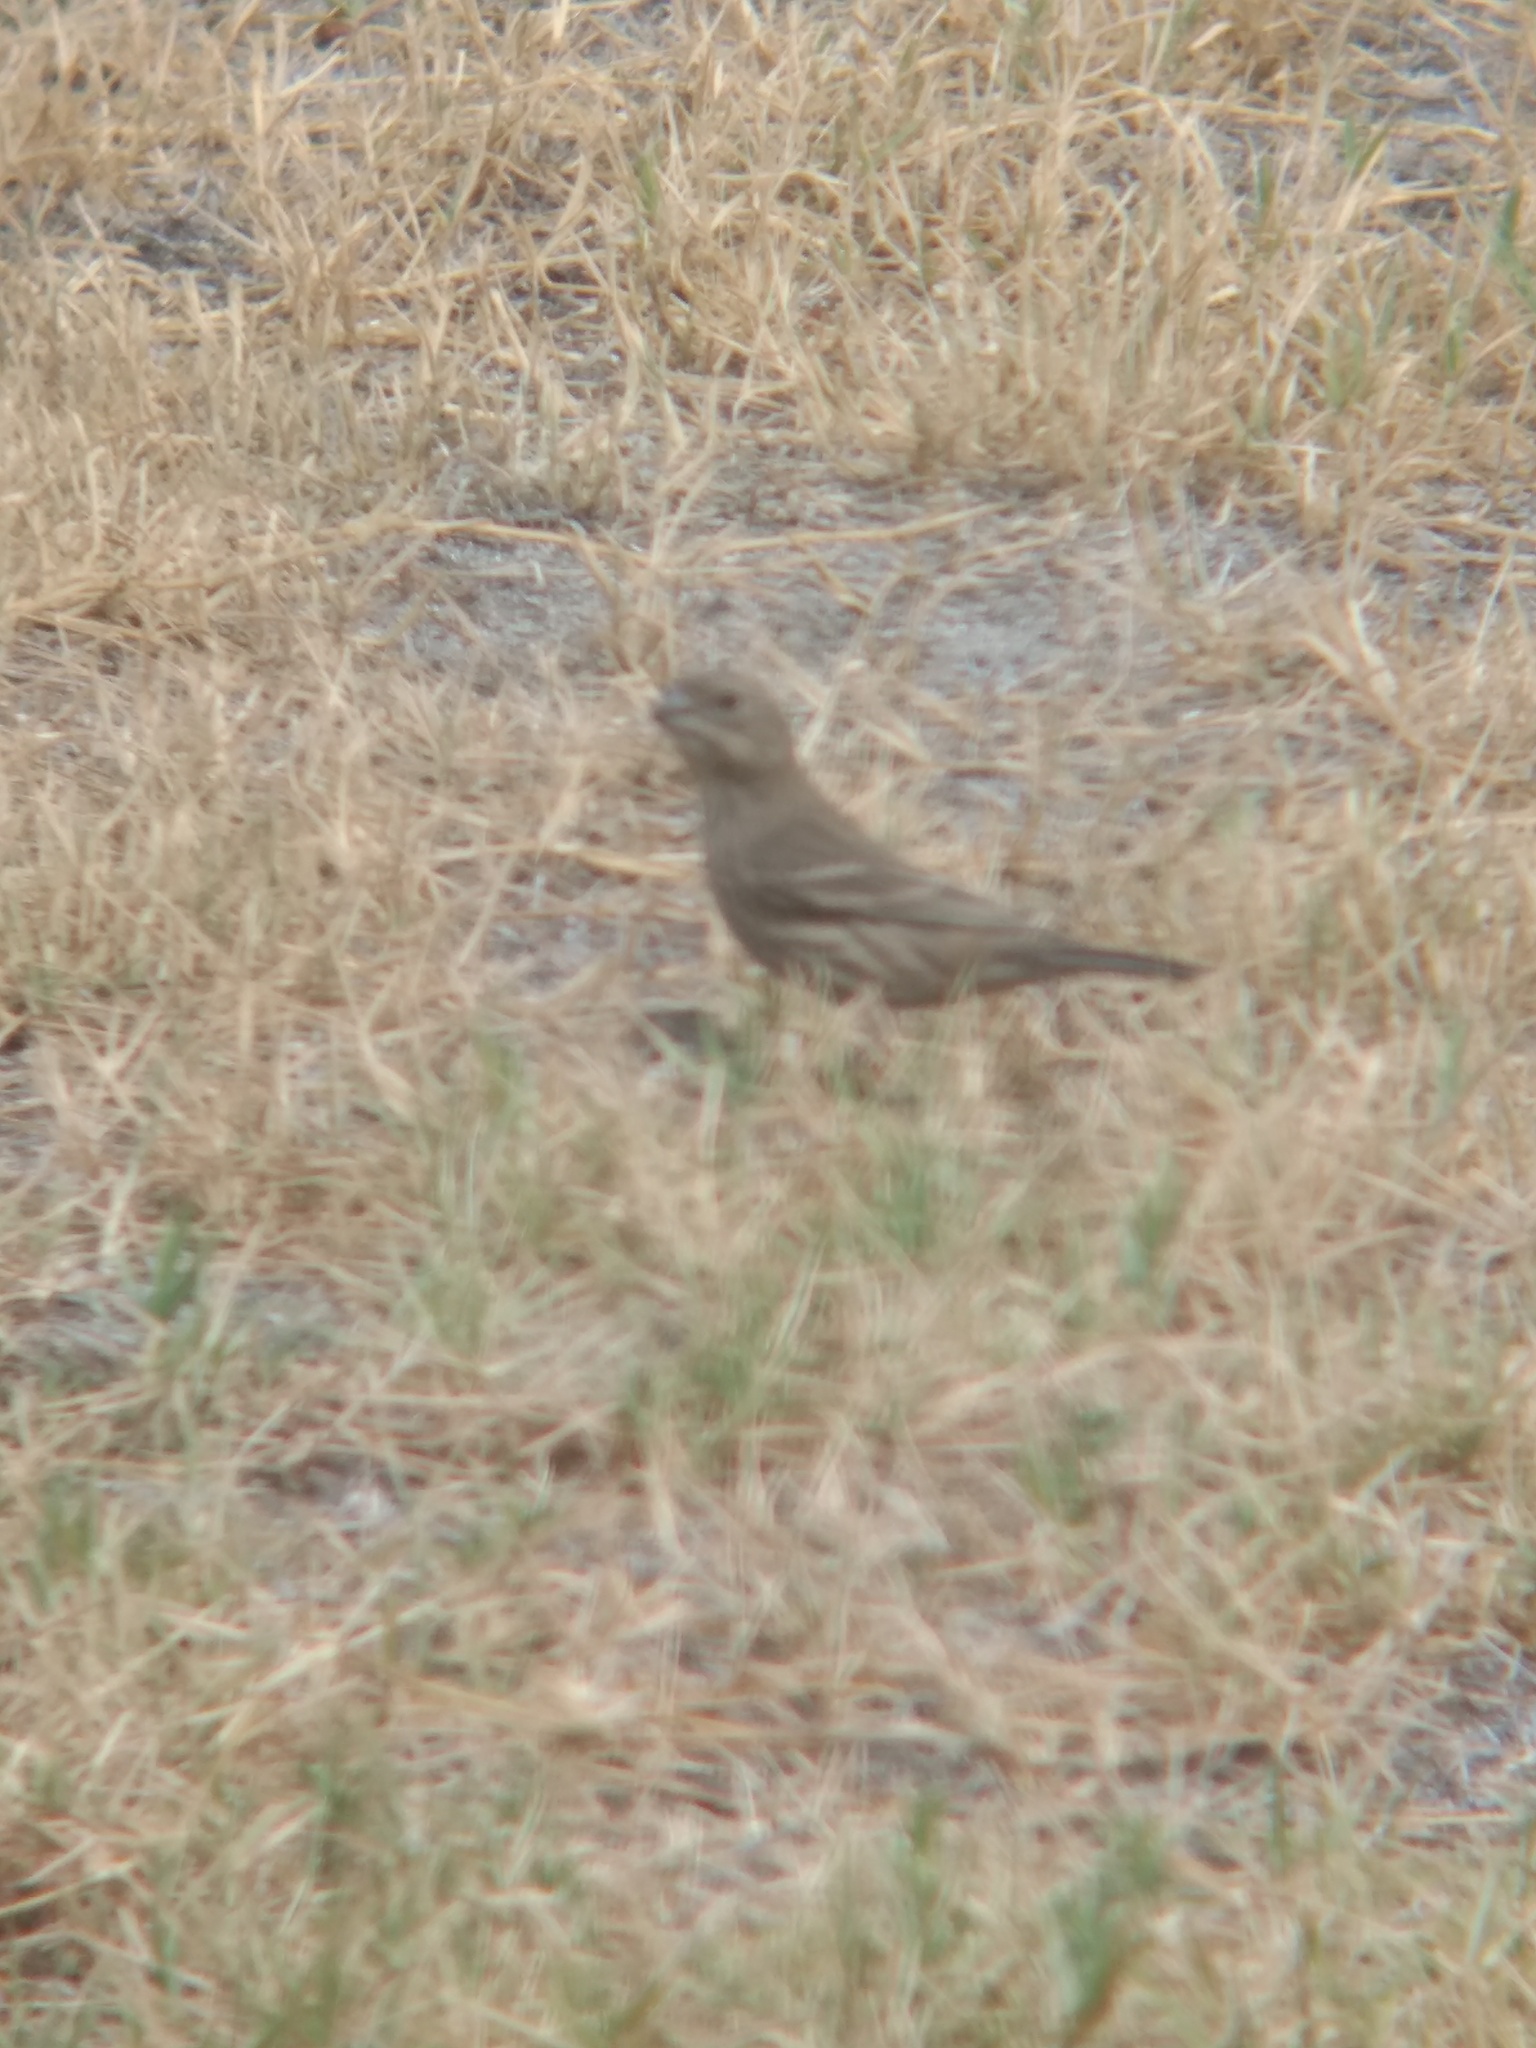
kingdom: Animalia
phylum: Chordata
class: Aves
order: Passeriformes
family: Fringillidae
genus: Haemorhous
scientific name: Haemorhous mexicanus
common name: House finch
